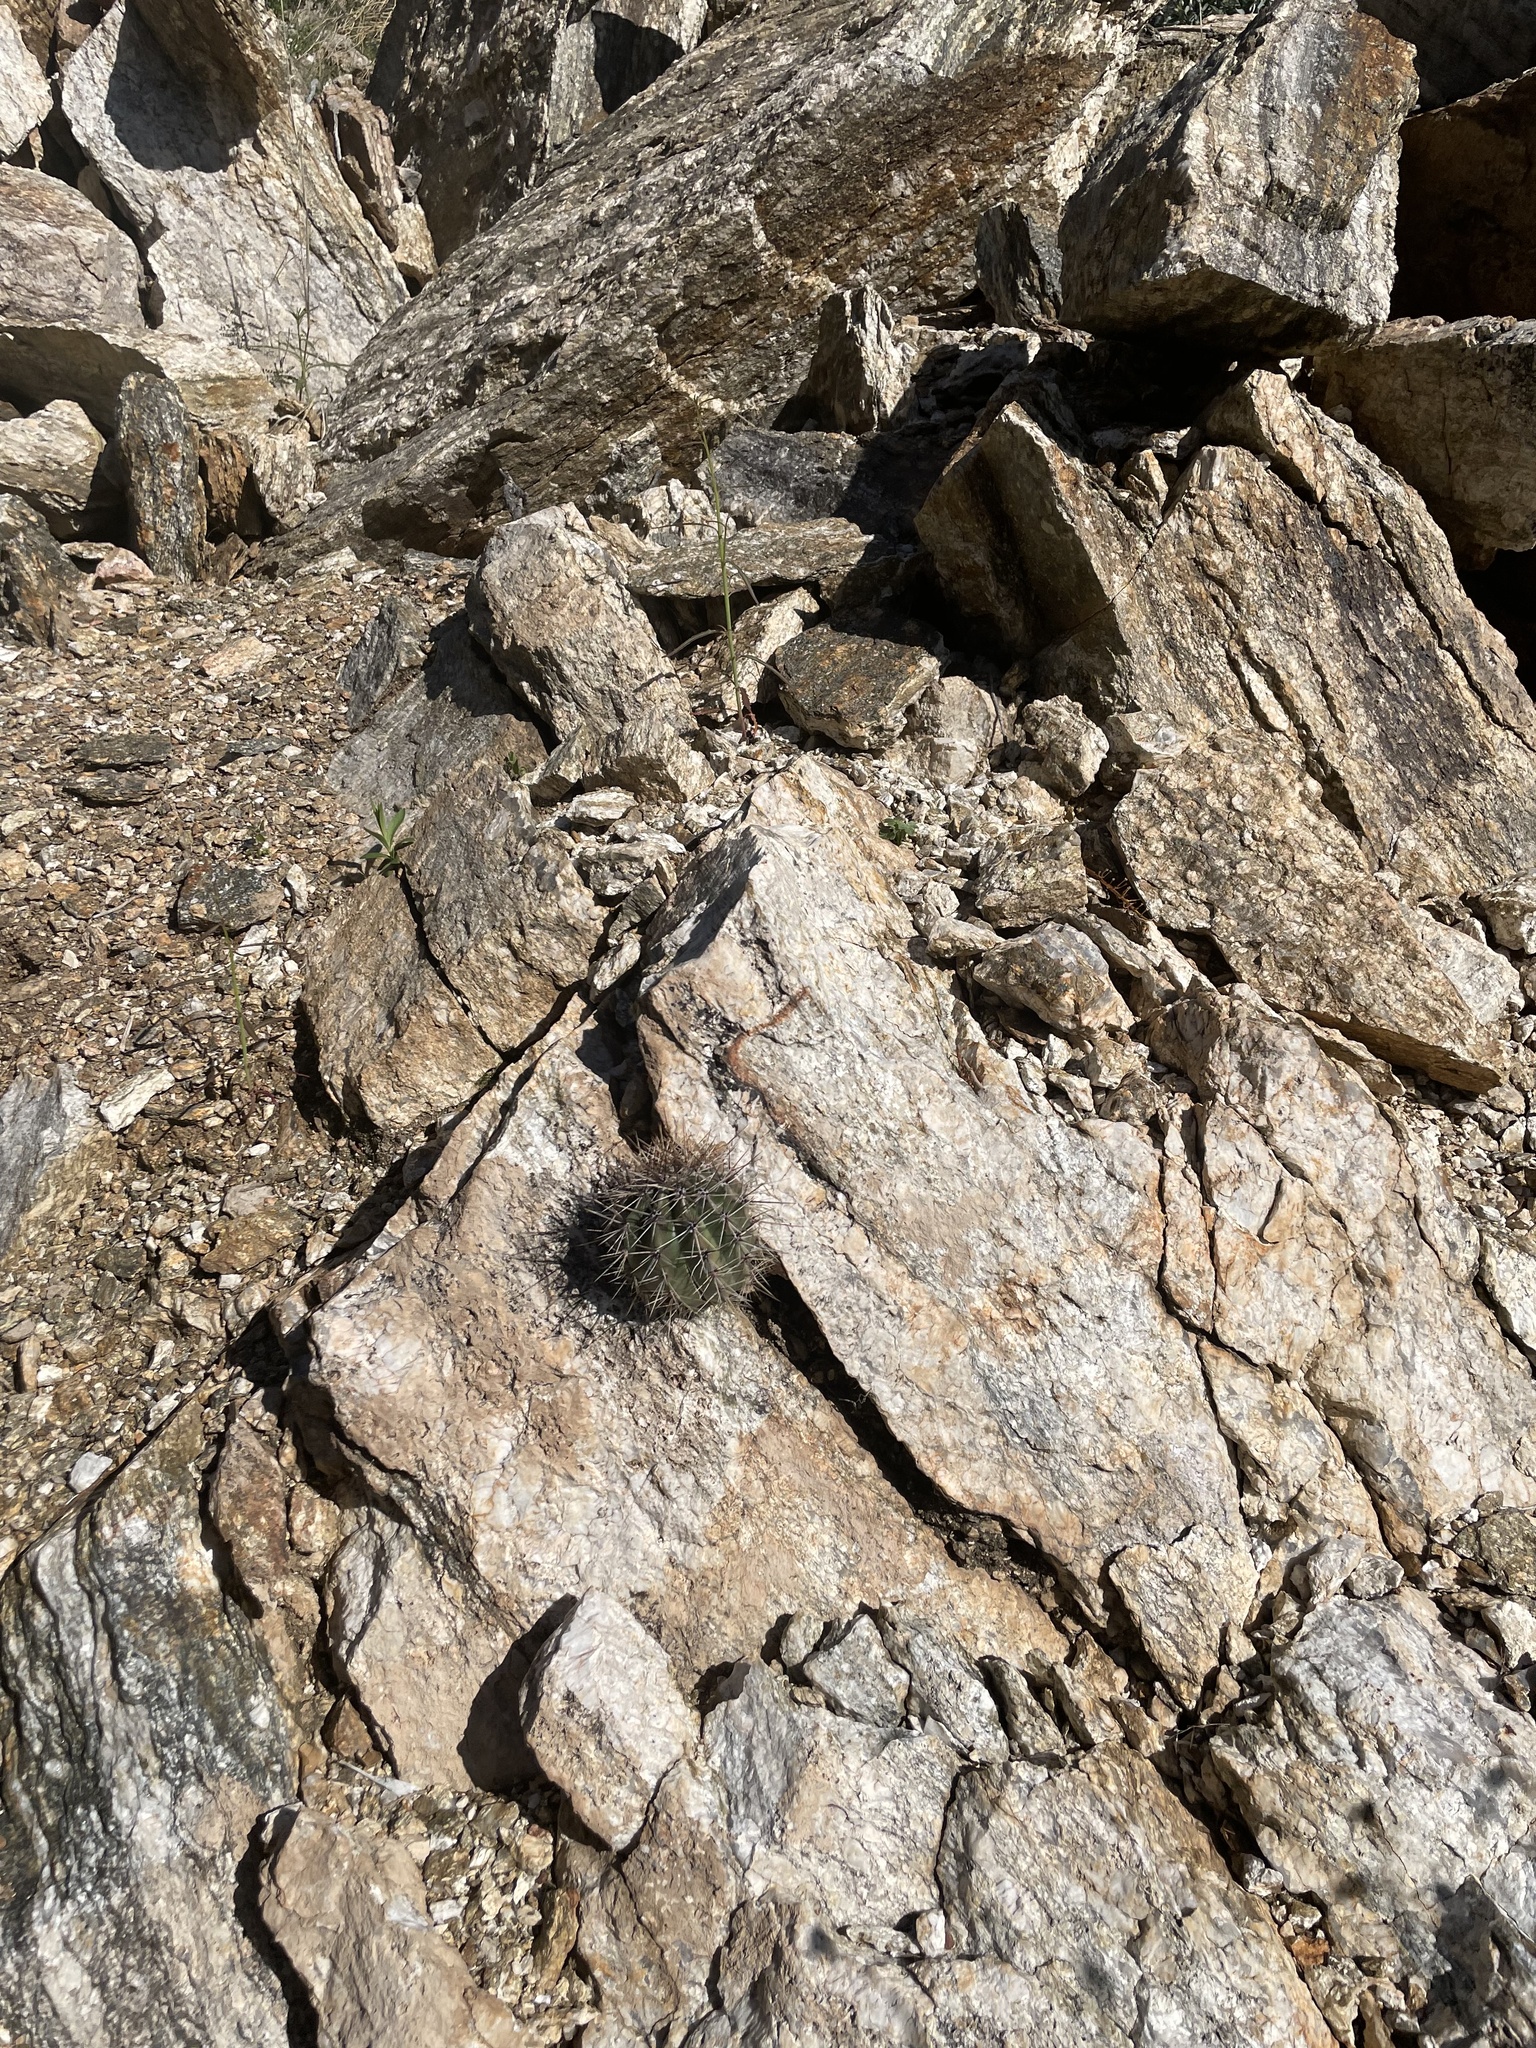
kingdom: Plantae
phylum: Tracheophyta
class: Magnoliopsida
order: Caryophyllales
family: Cactaceae
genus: Carnegiea
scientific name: Carnegiea gigantea
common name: Saguaro
